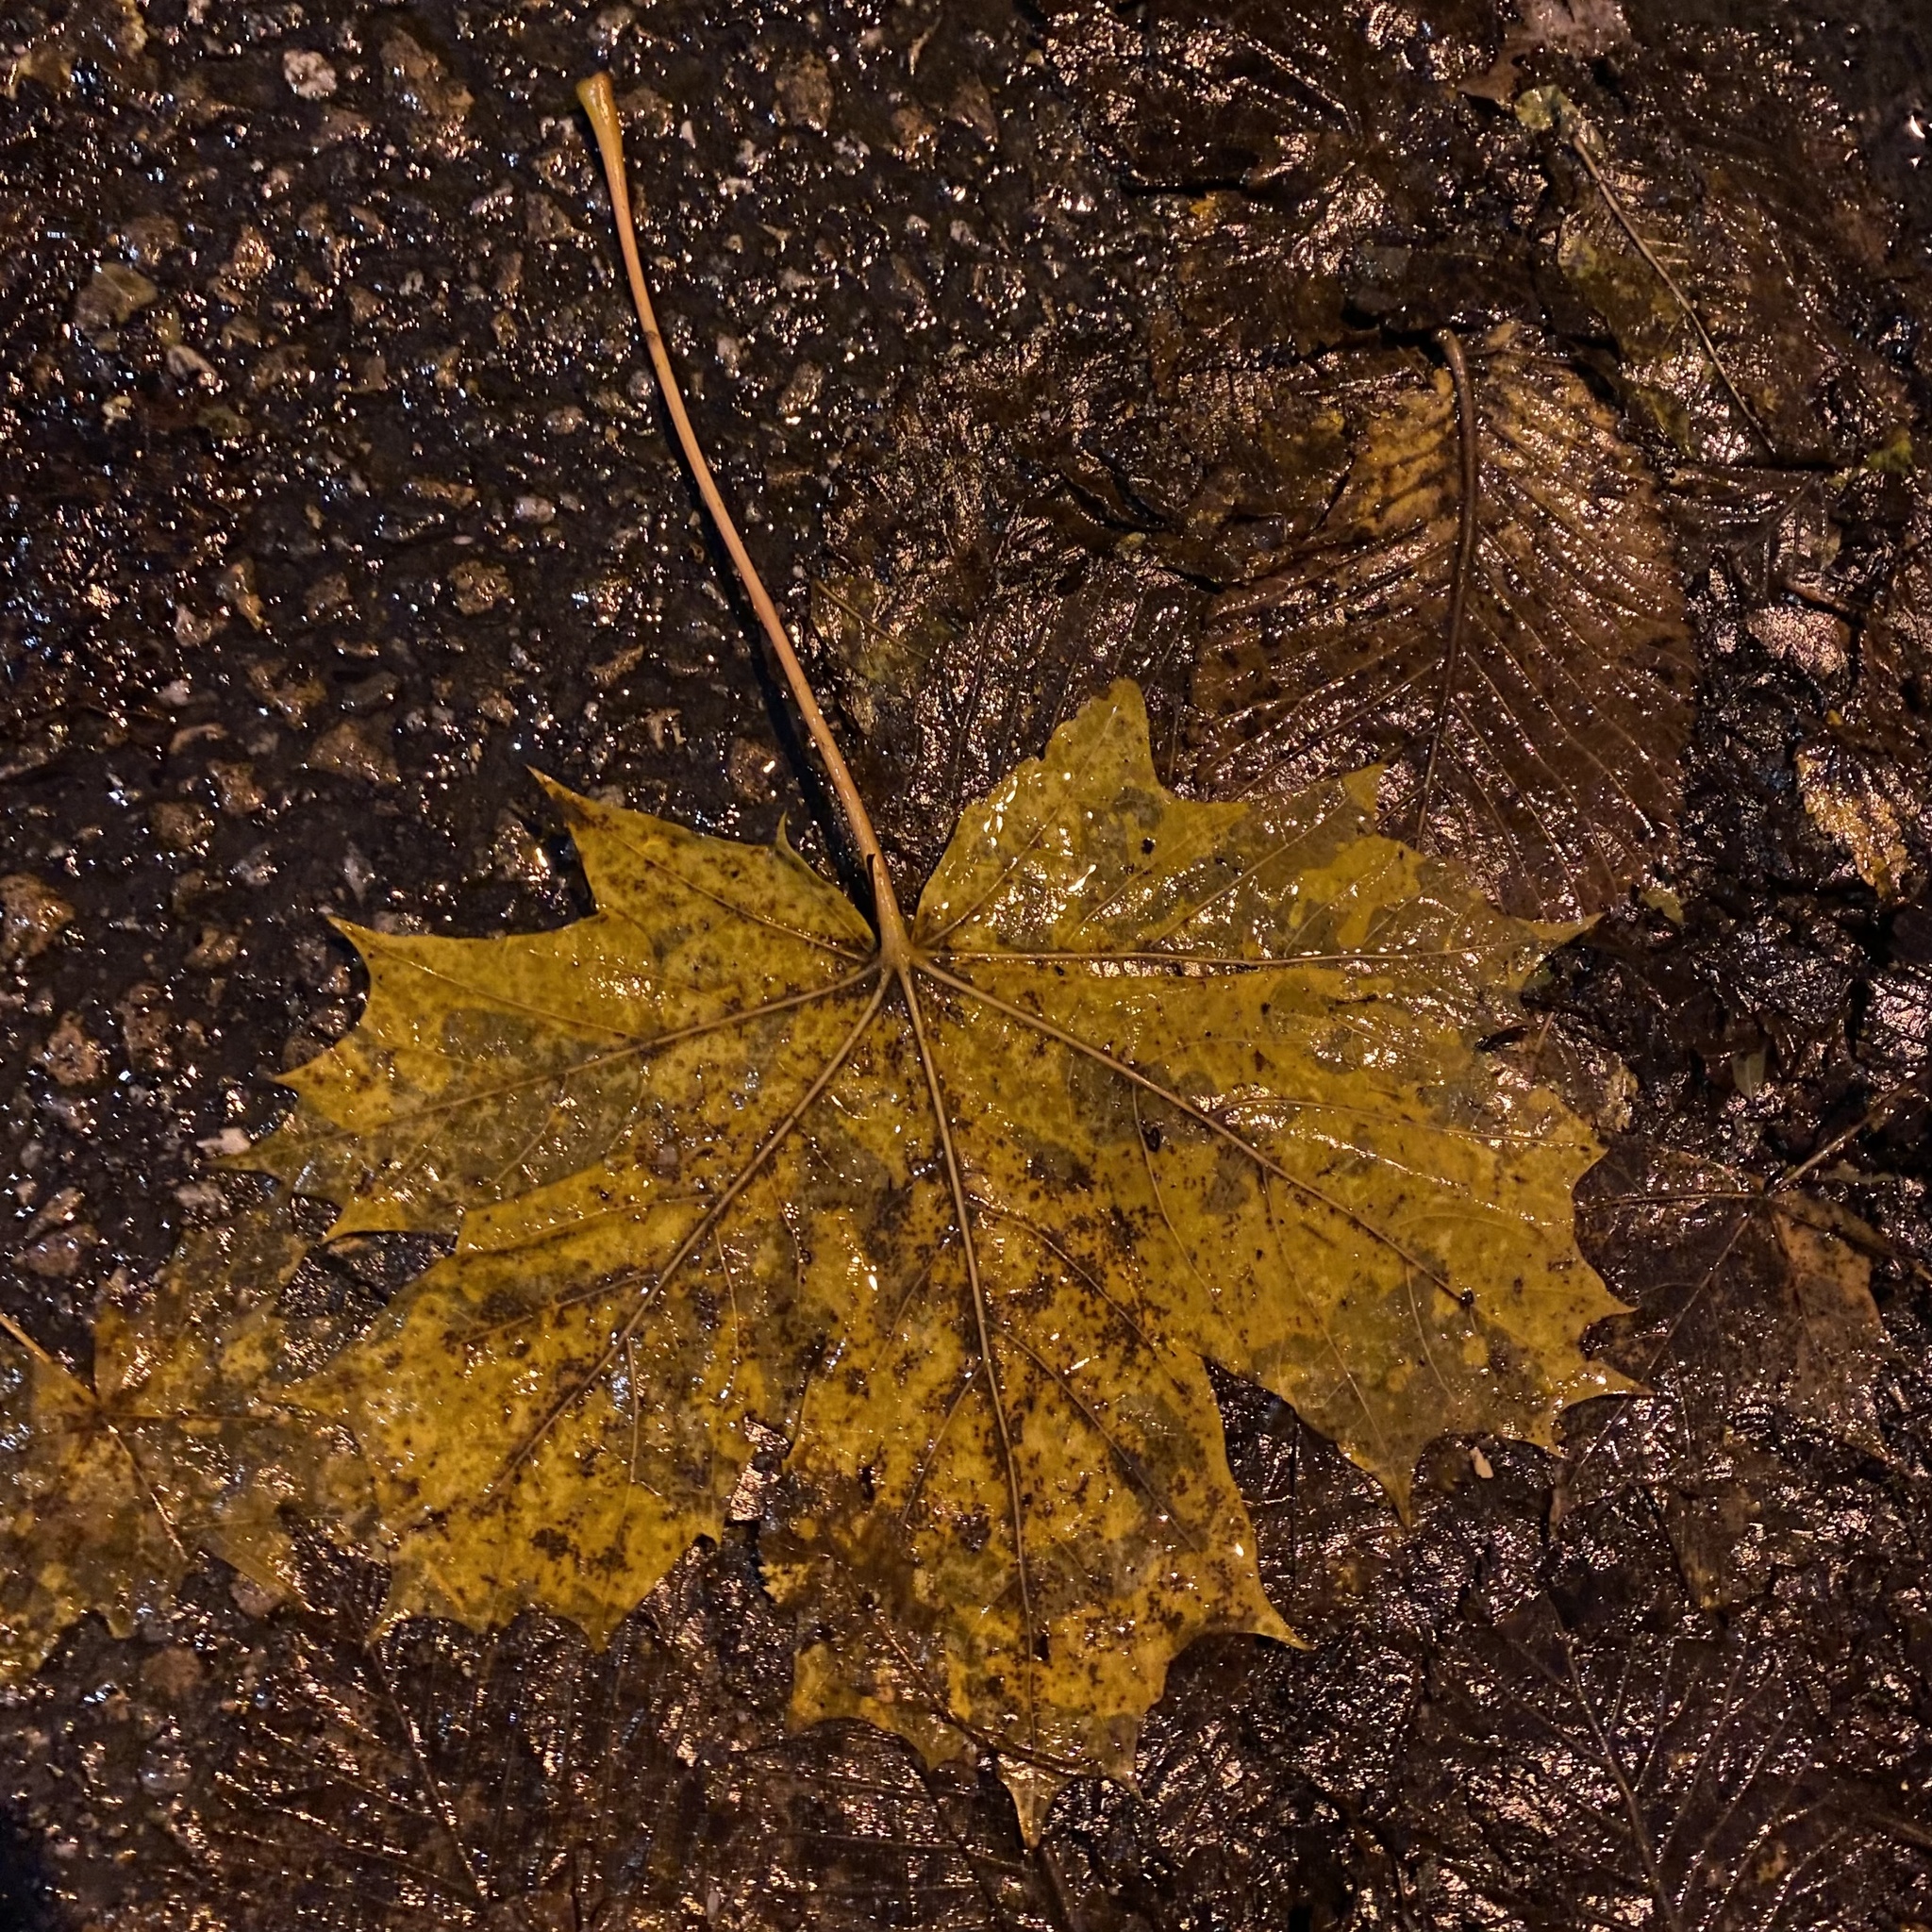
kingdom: Plantae
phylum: Tracheophyta
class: Magnoliopsida
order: Sapindales
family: Sapindaceae
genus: Acer
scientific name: Acer platanoides
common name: Norway maple
